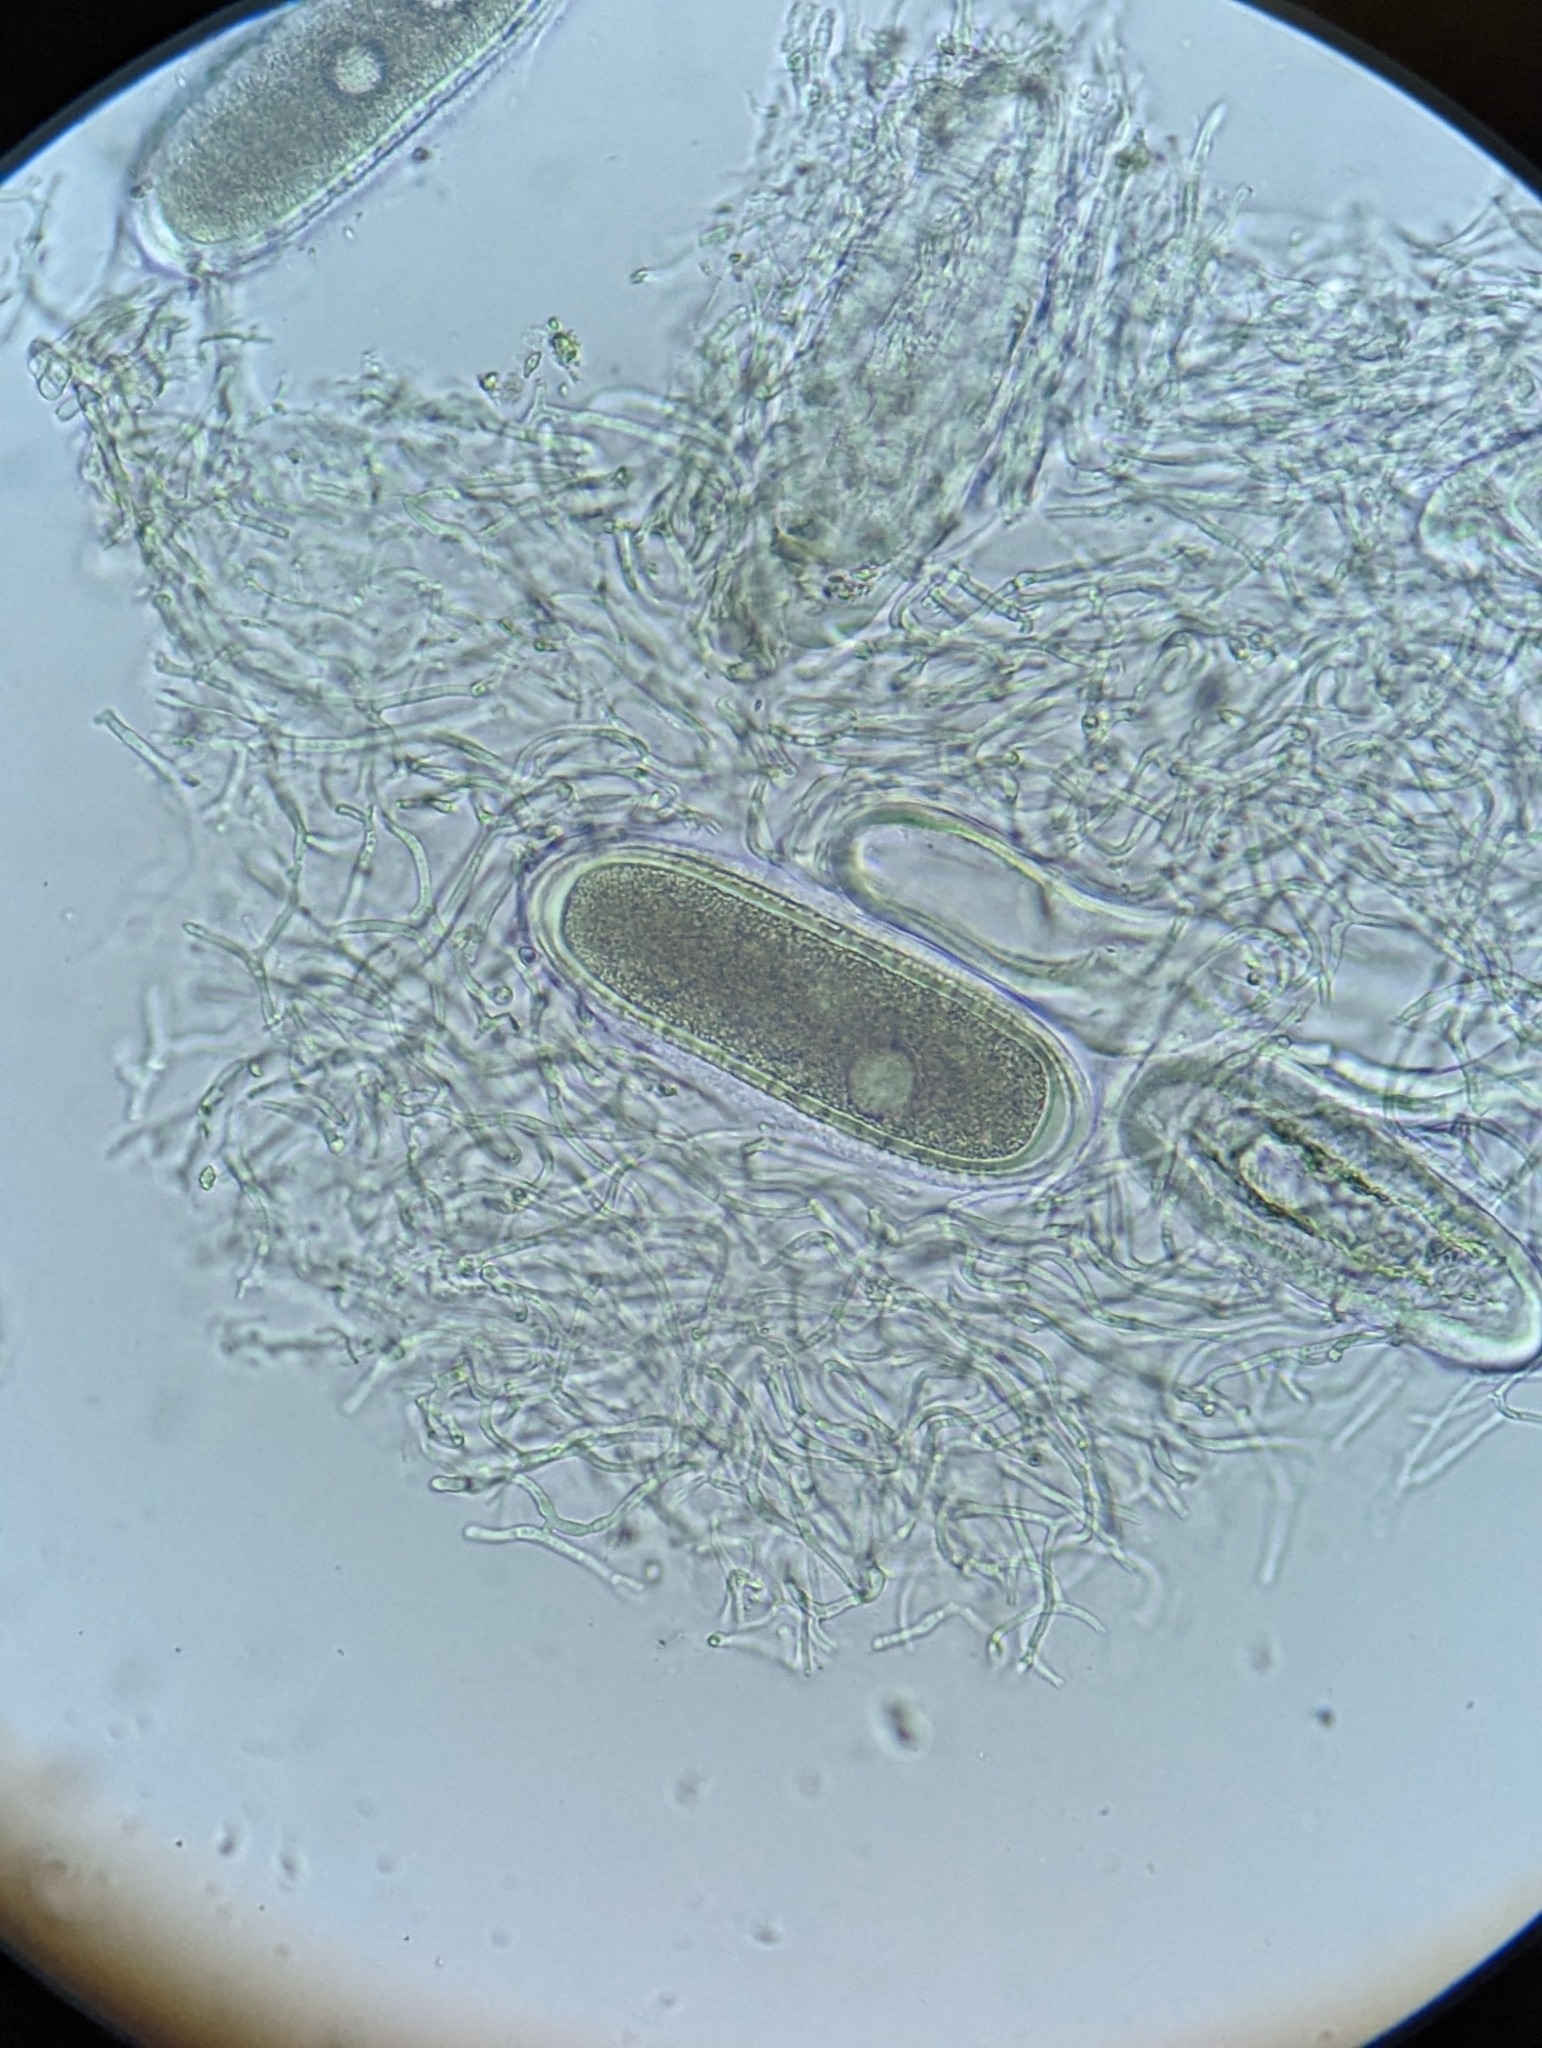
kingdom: Fungi
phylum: Ascomycota
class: Lecanoromycetes
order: Pertusariales
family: Pertusariaceae
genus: Pertusaria
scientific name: Pertusaria pustulata
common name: Branch bumps
